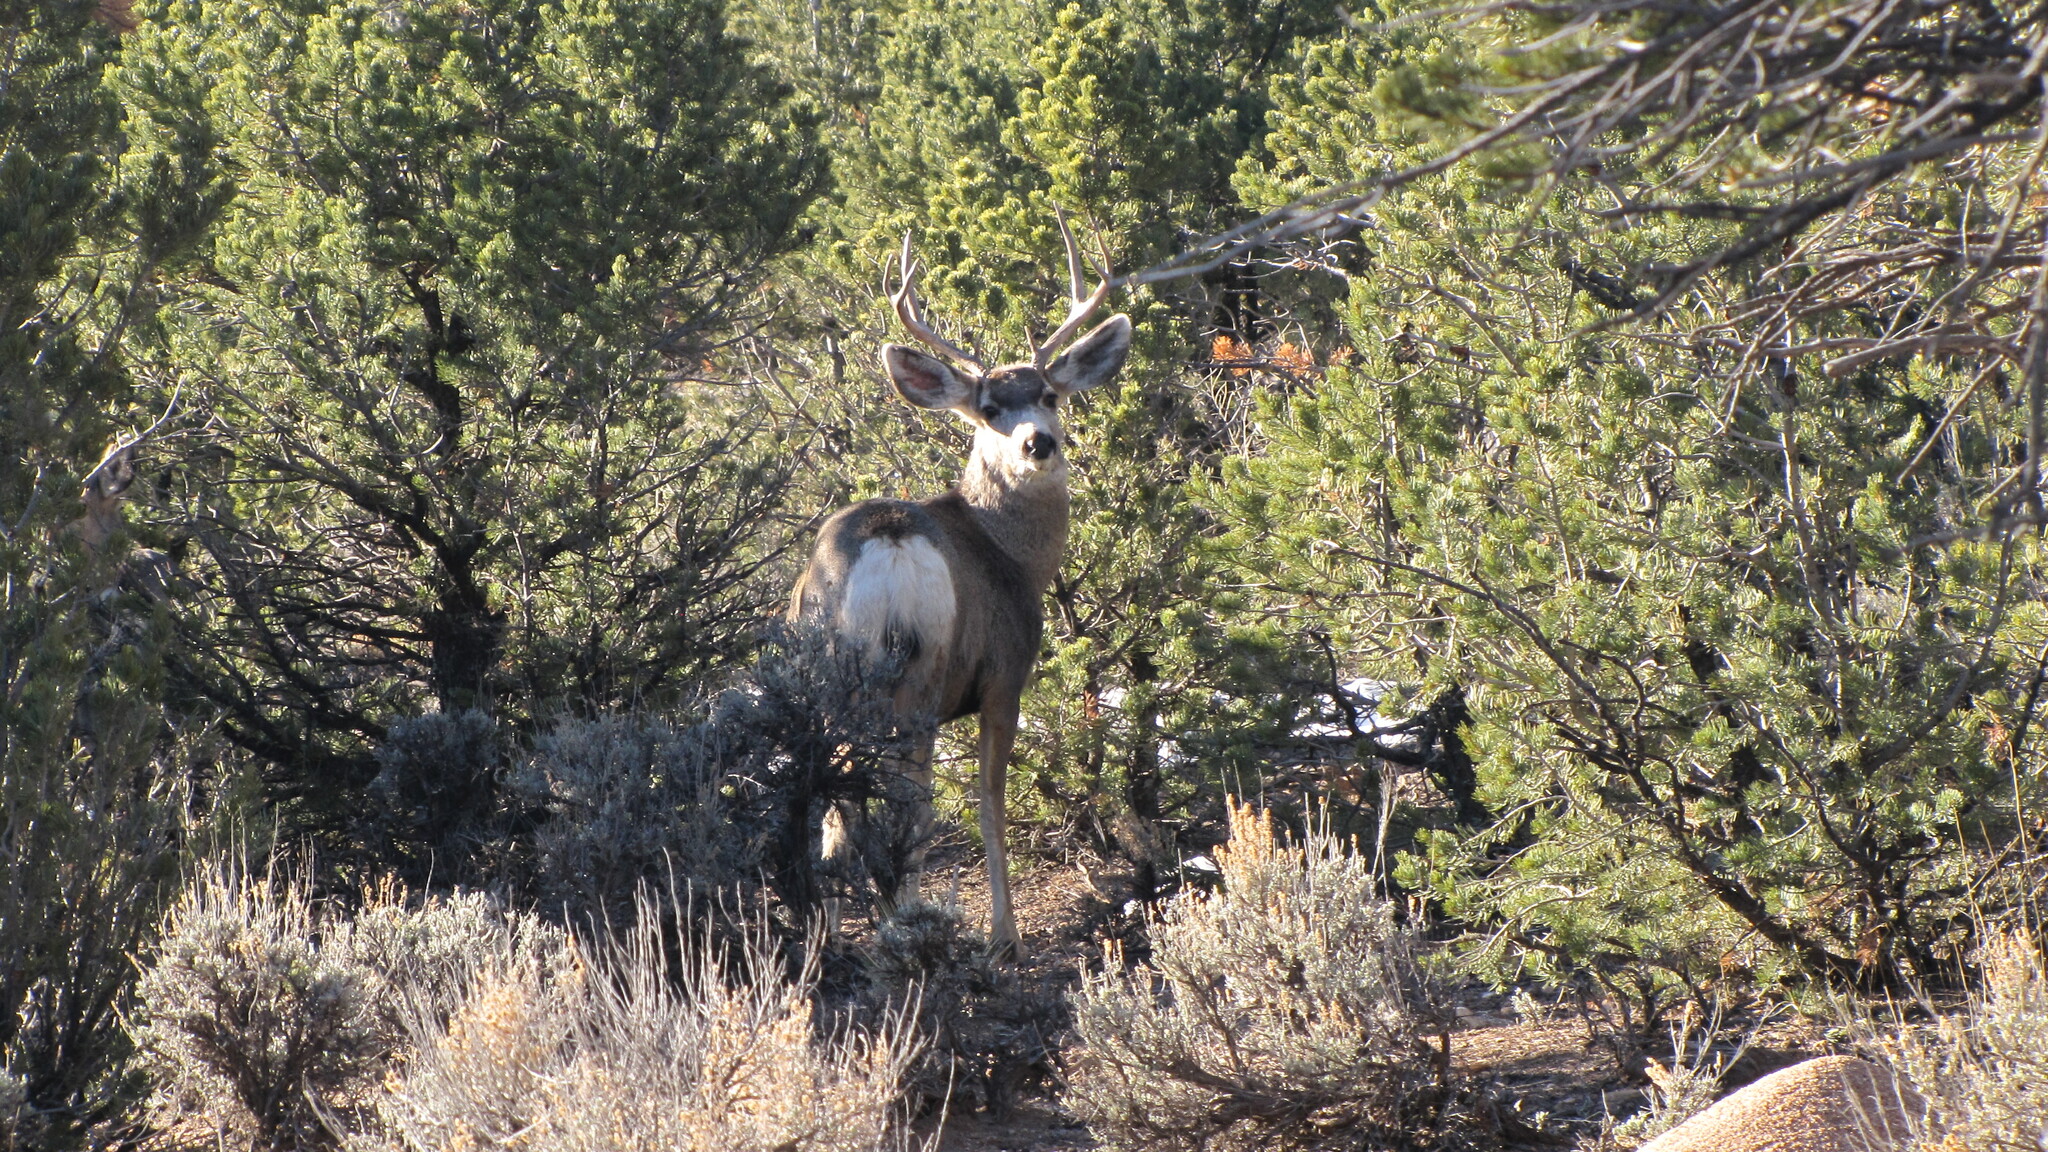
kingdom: Animalia
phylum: Chordata
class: Mammalia
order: Artiodactyla
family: Cervidae
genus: Odocoileus
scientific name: Odocoileus hemionus
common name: Mule deer
